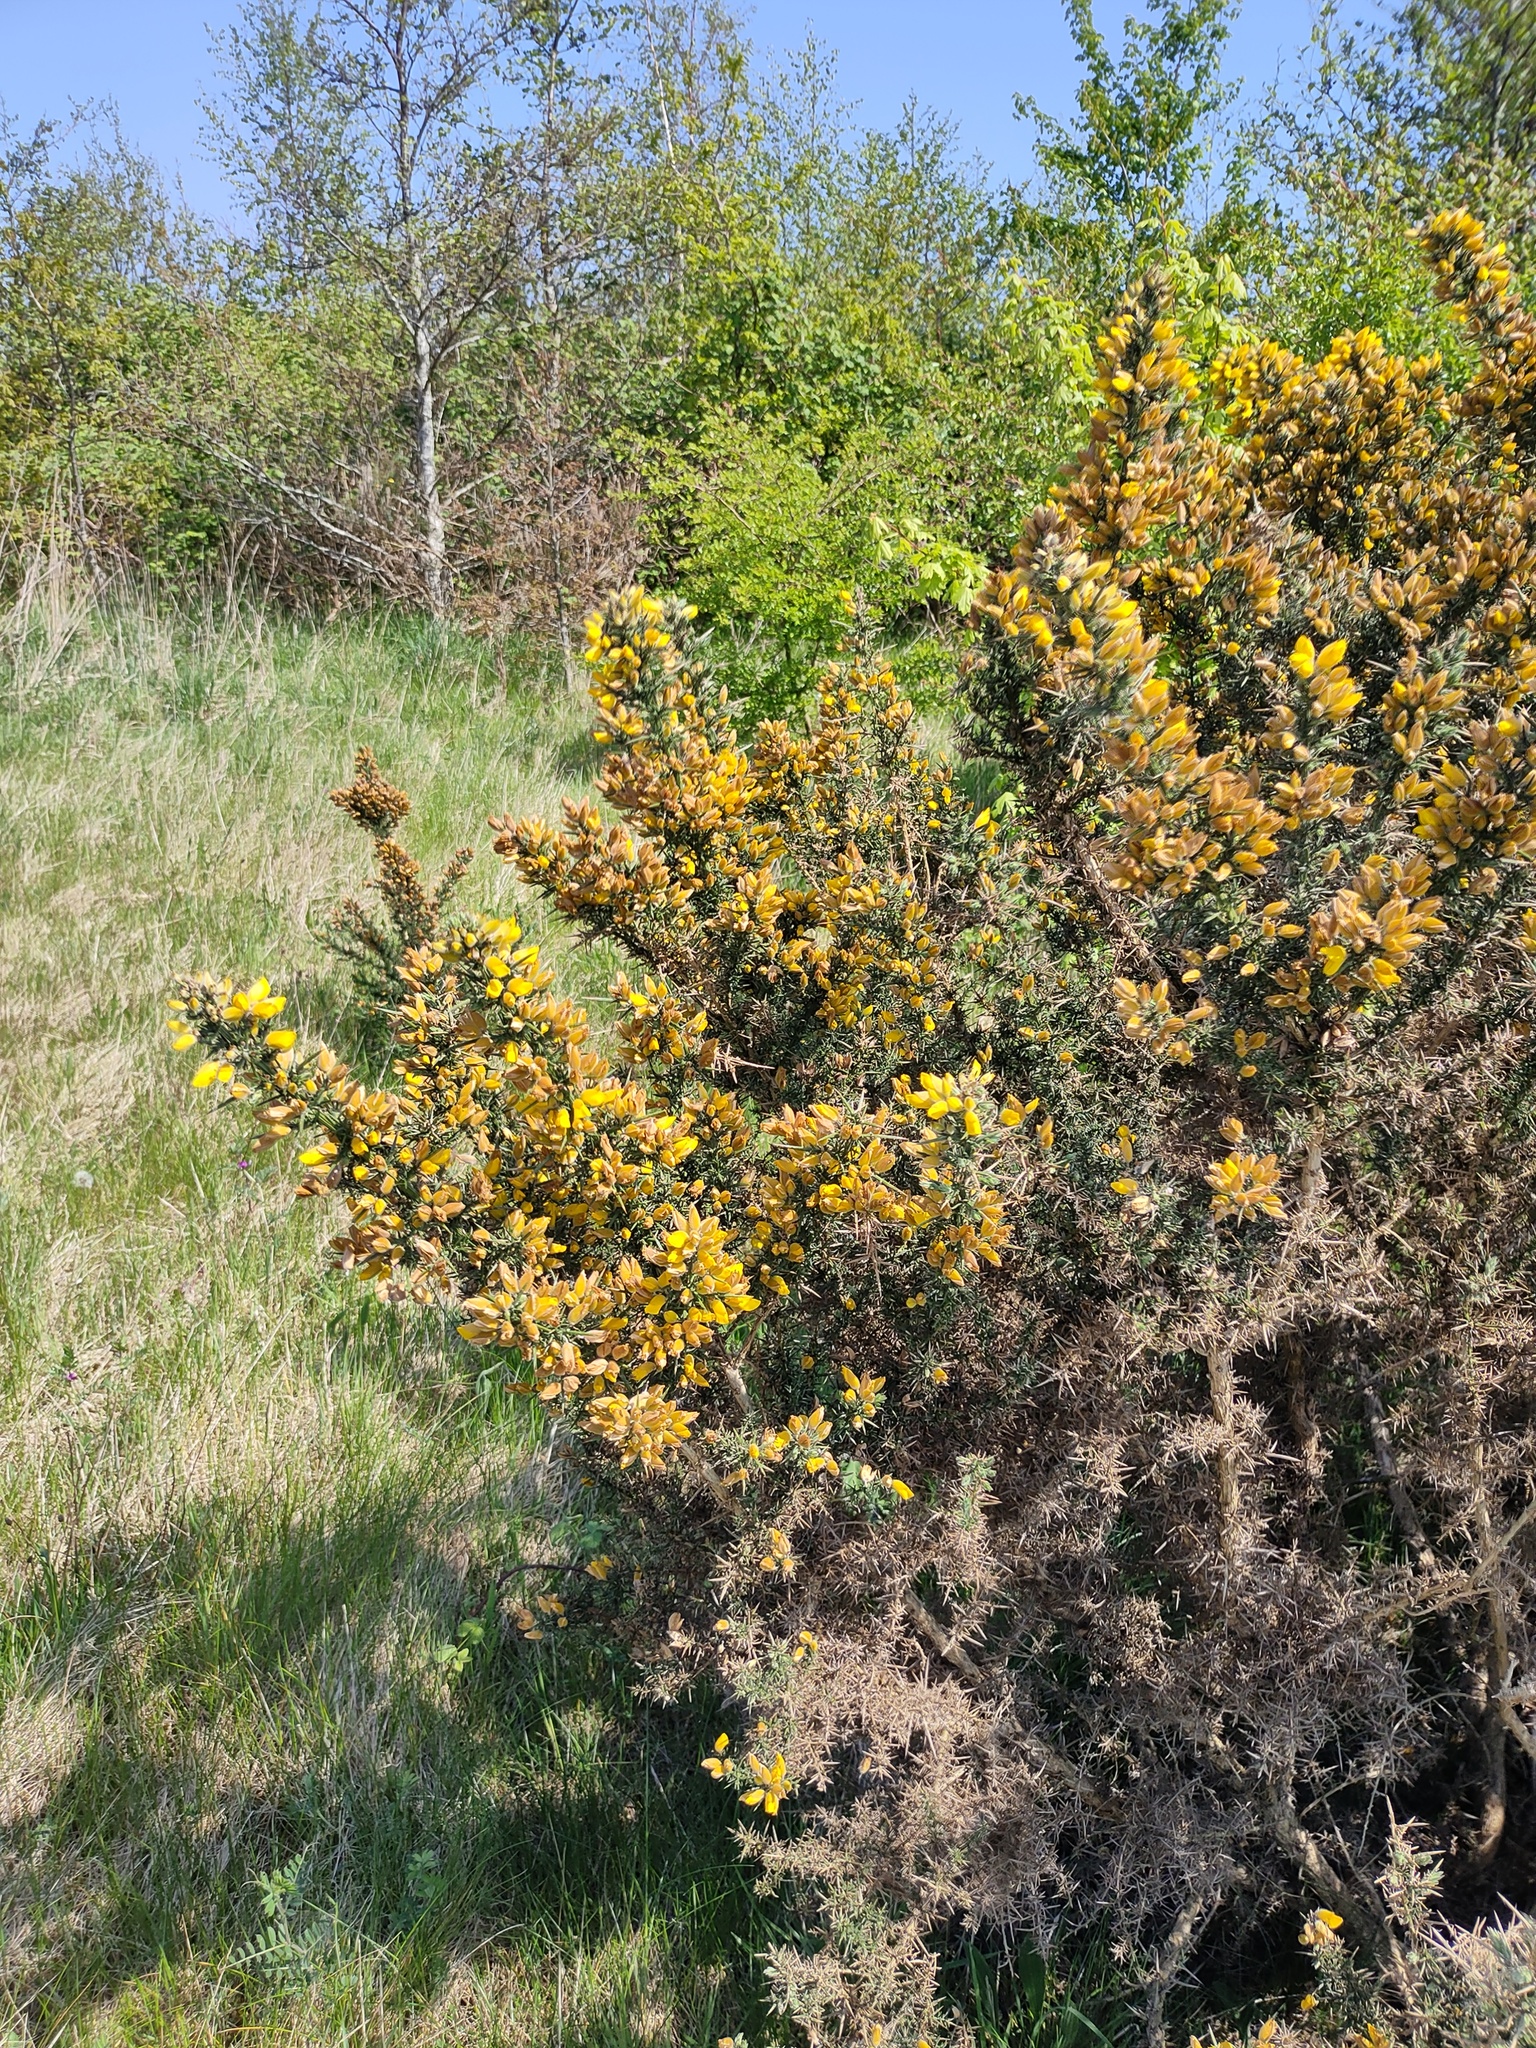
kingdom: Plantae
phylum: Tracheophyta
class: Magnoliopsida
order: Fabales
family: Fabaceae
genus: Ulex
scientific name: Ulex europaeus
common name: Common gorse
